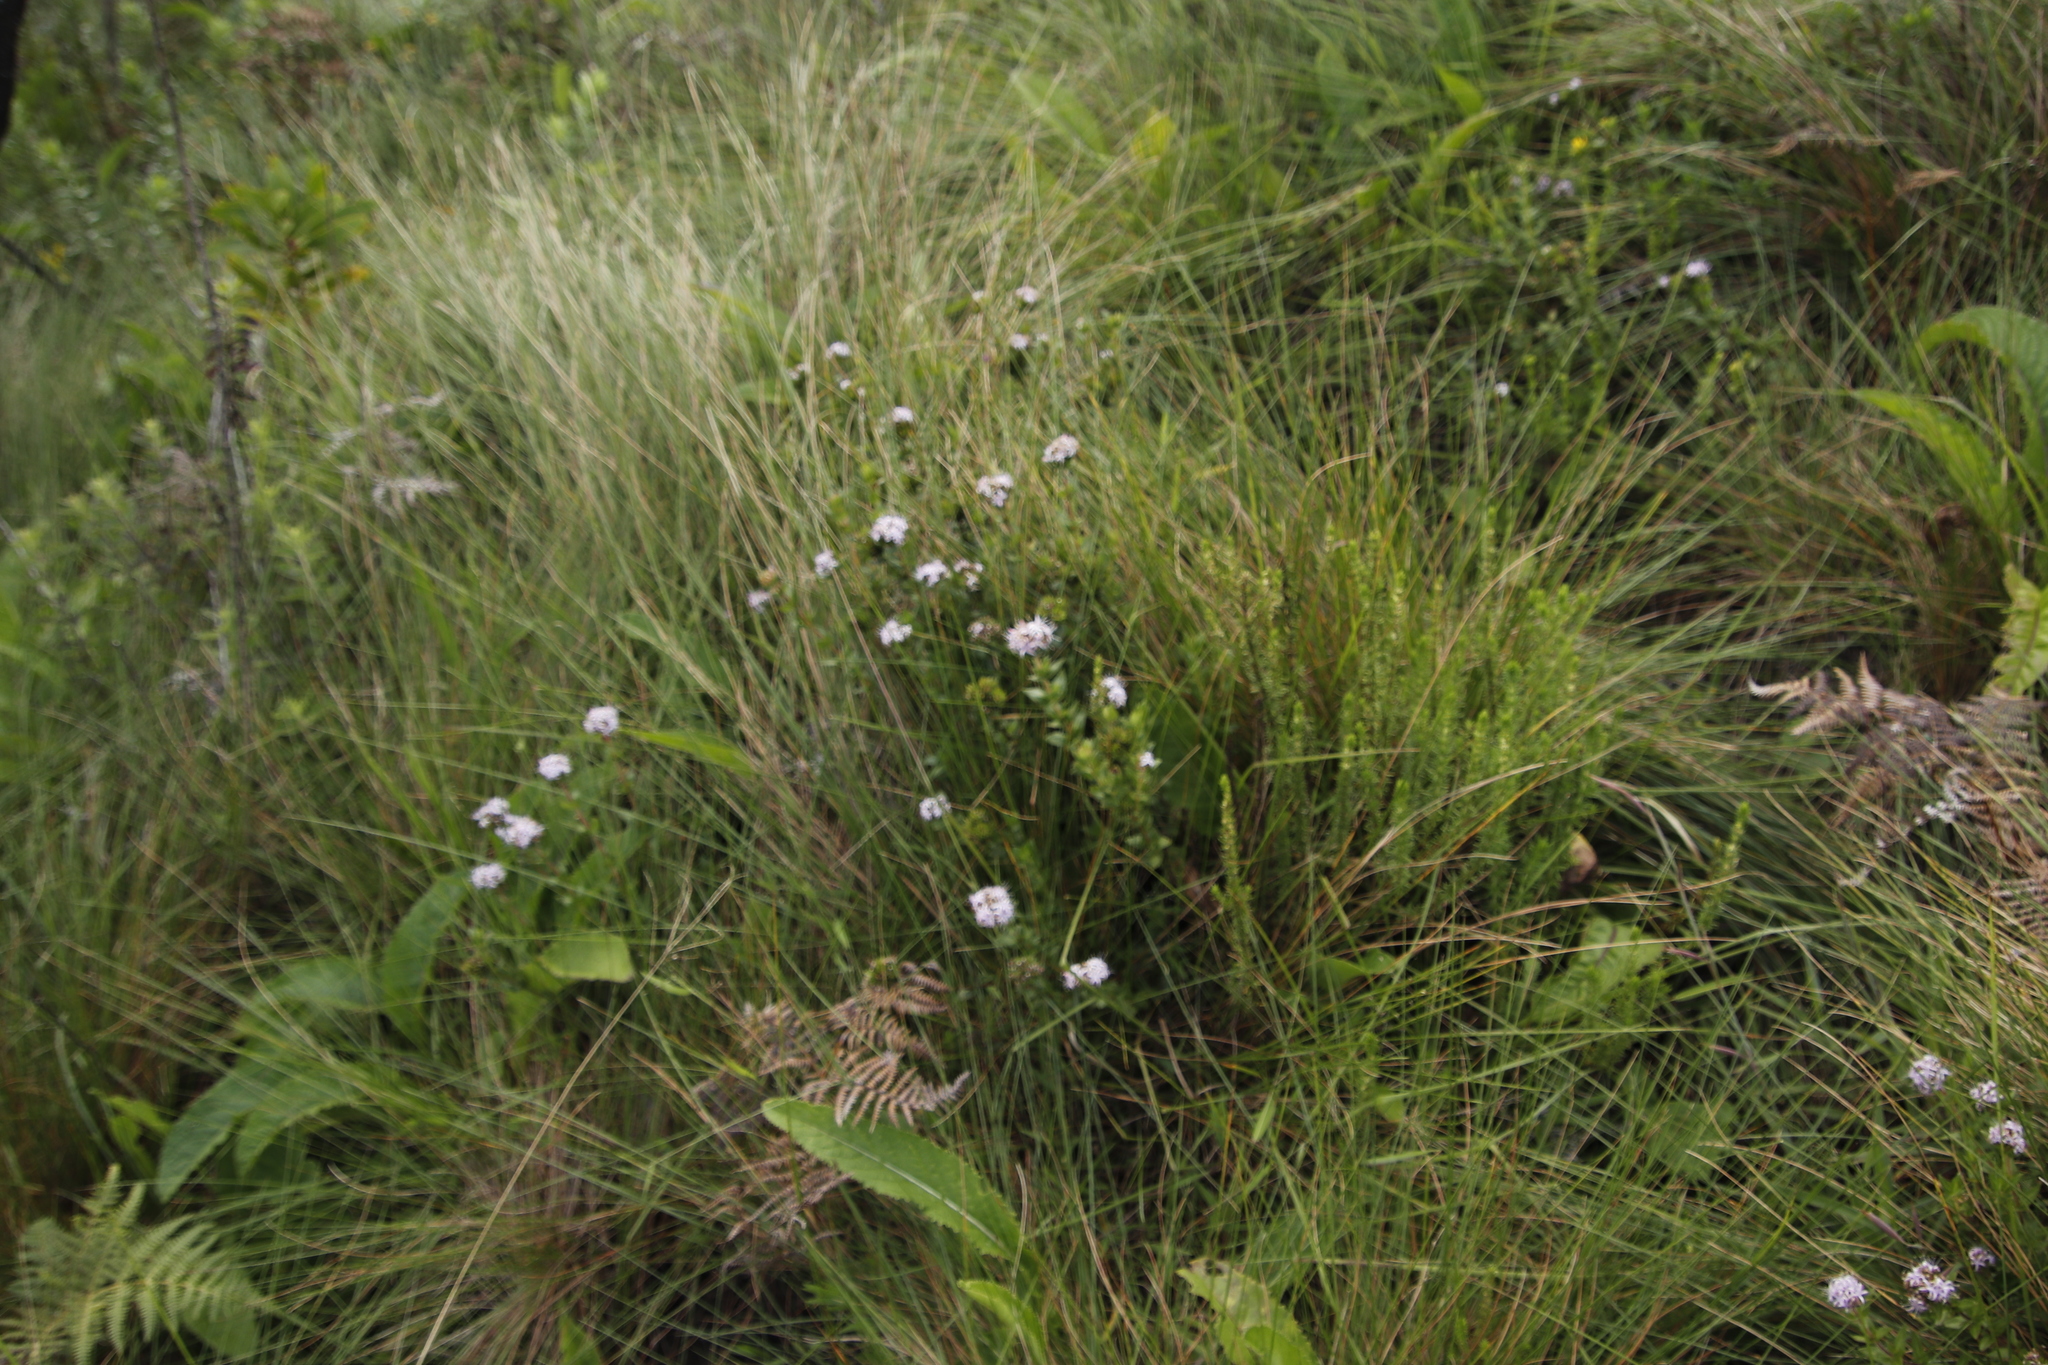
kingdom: Plantae
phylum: Tracheophyta
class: Magnoliopsida
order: Gentianales
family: Rubiaceae
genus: Otiophora
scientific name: Otiophora inyangana
